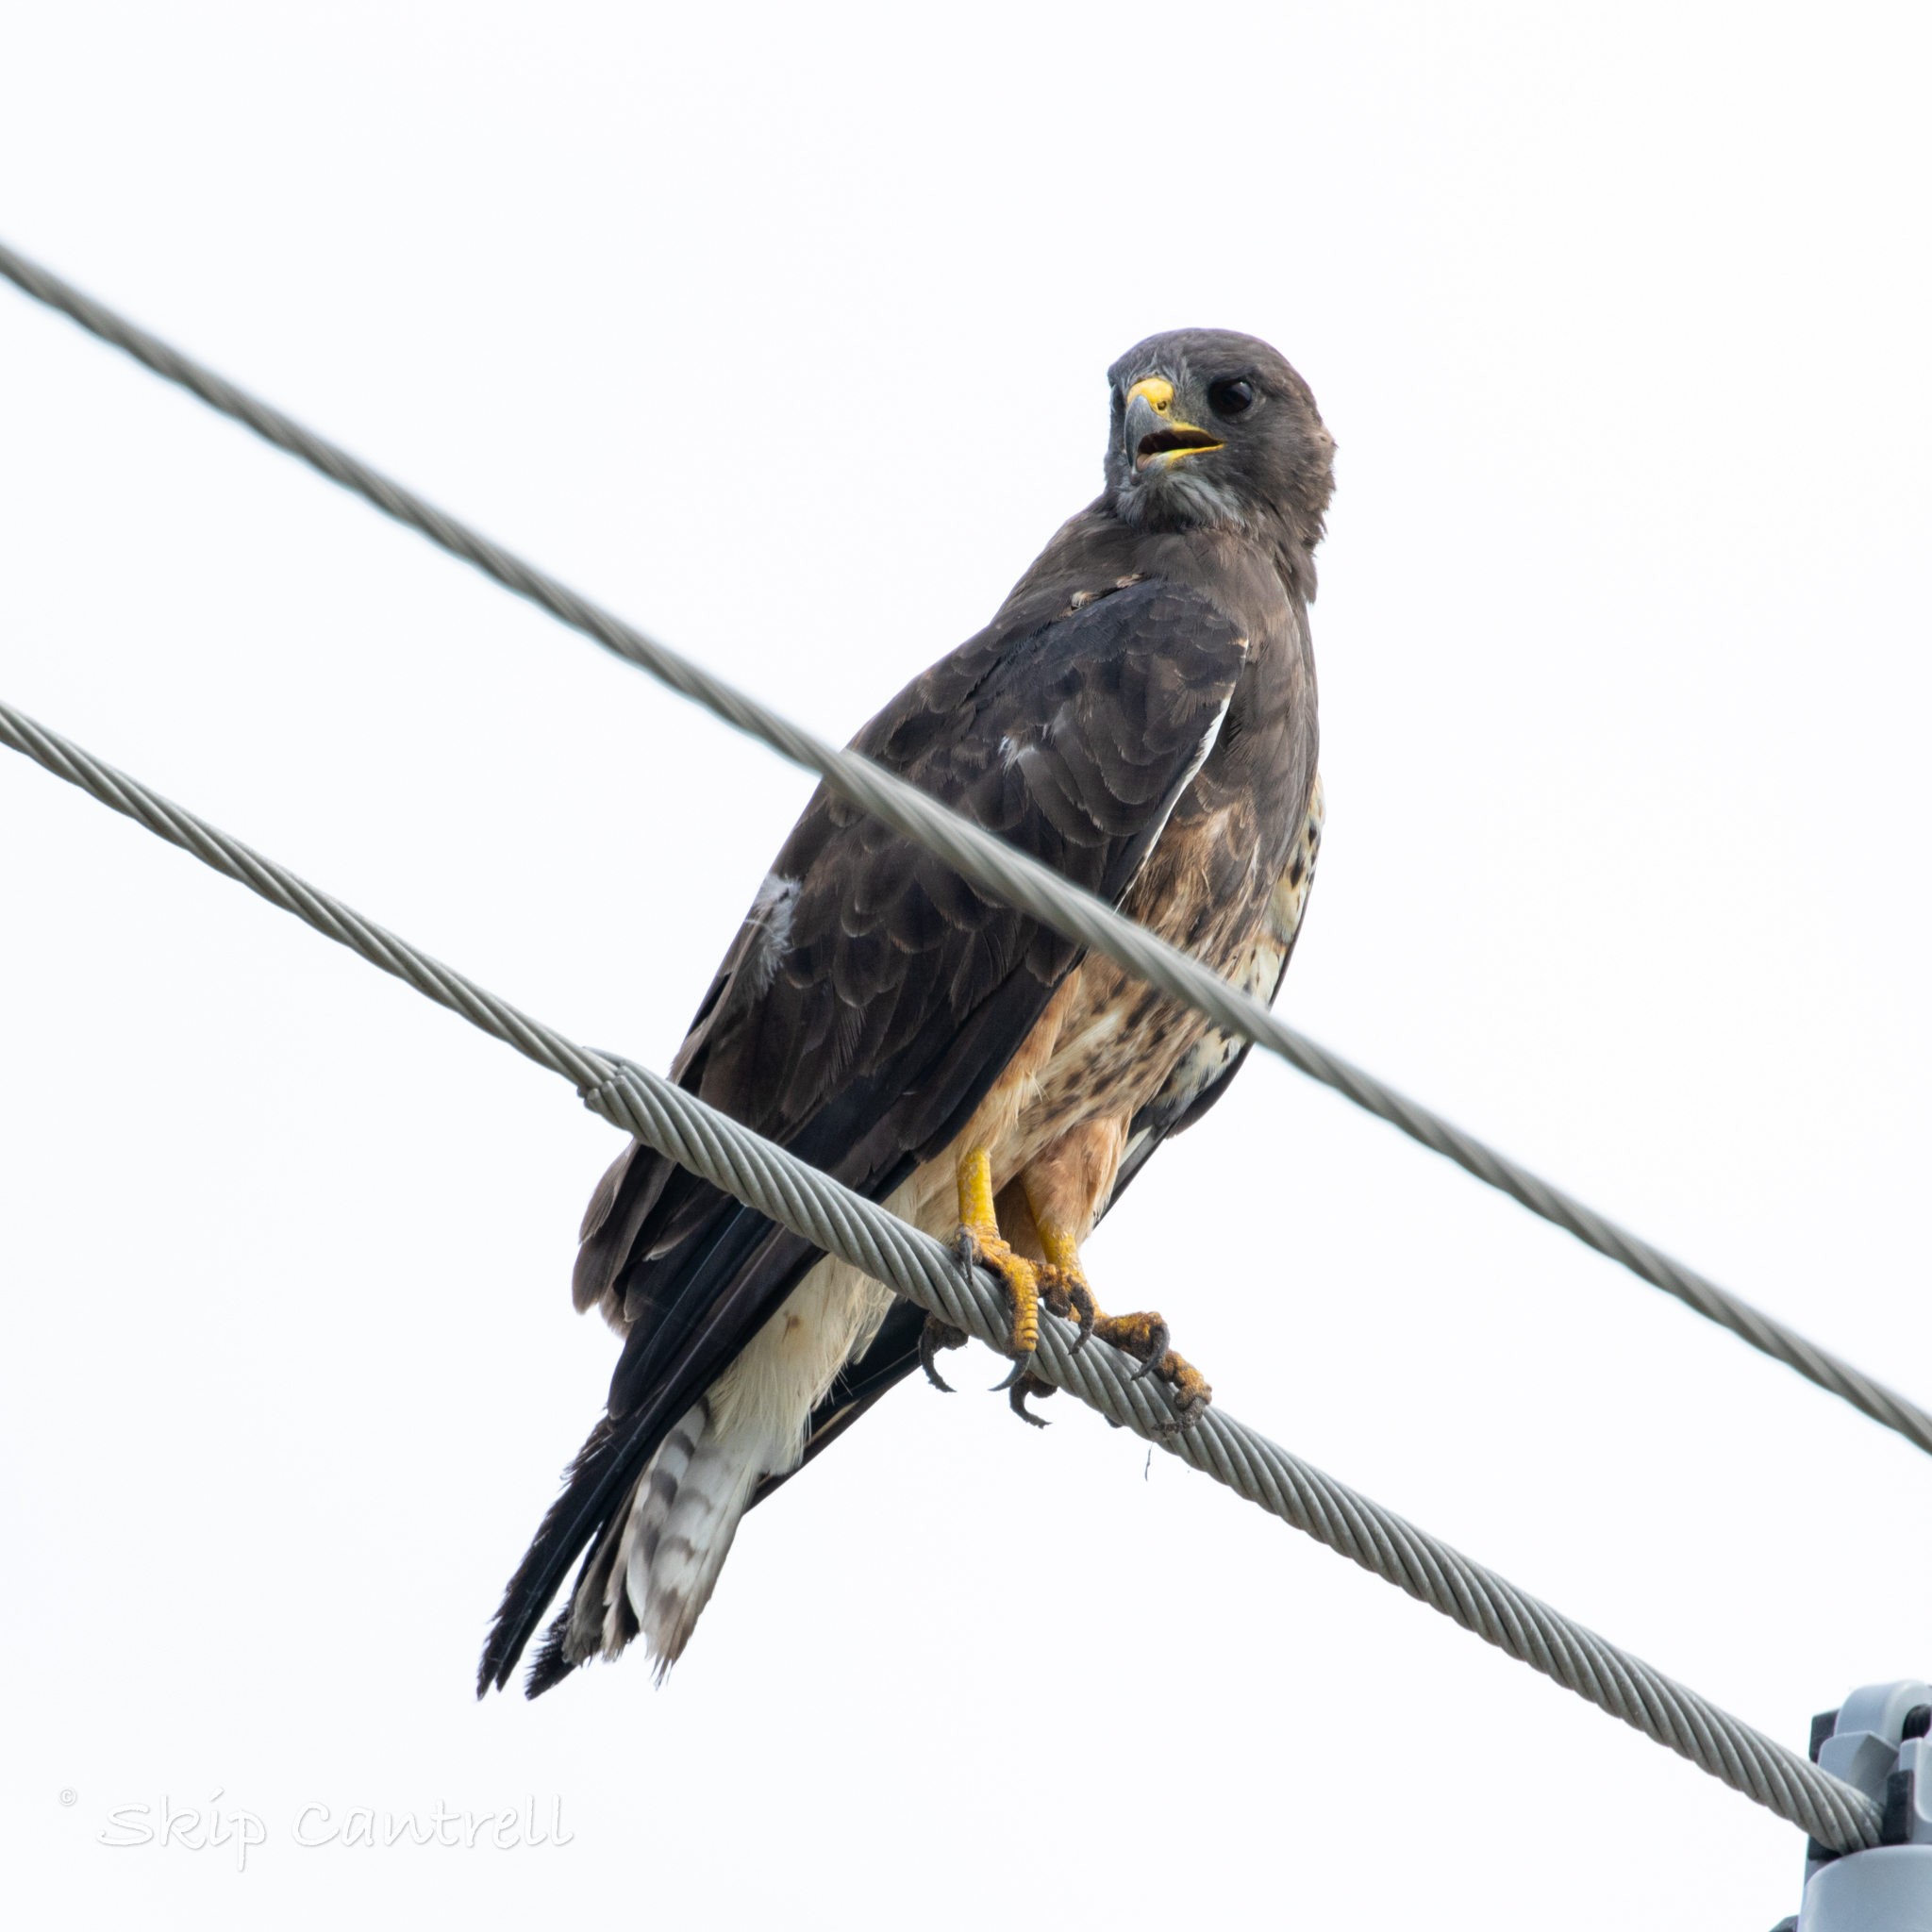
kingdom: Animalia
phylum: Chordata
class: Aves
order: Accipitriformes
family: Accipitridae
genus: Buteo
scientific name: Buteo swainsoni
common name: Swainson's hawk
